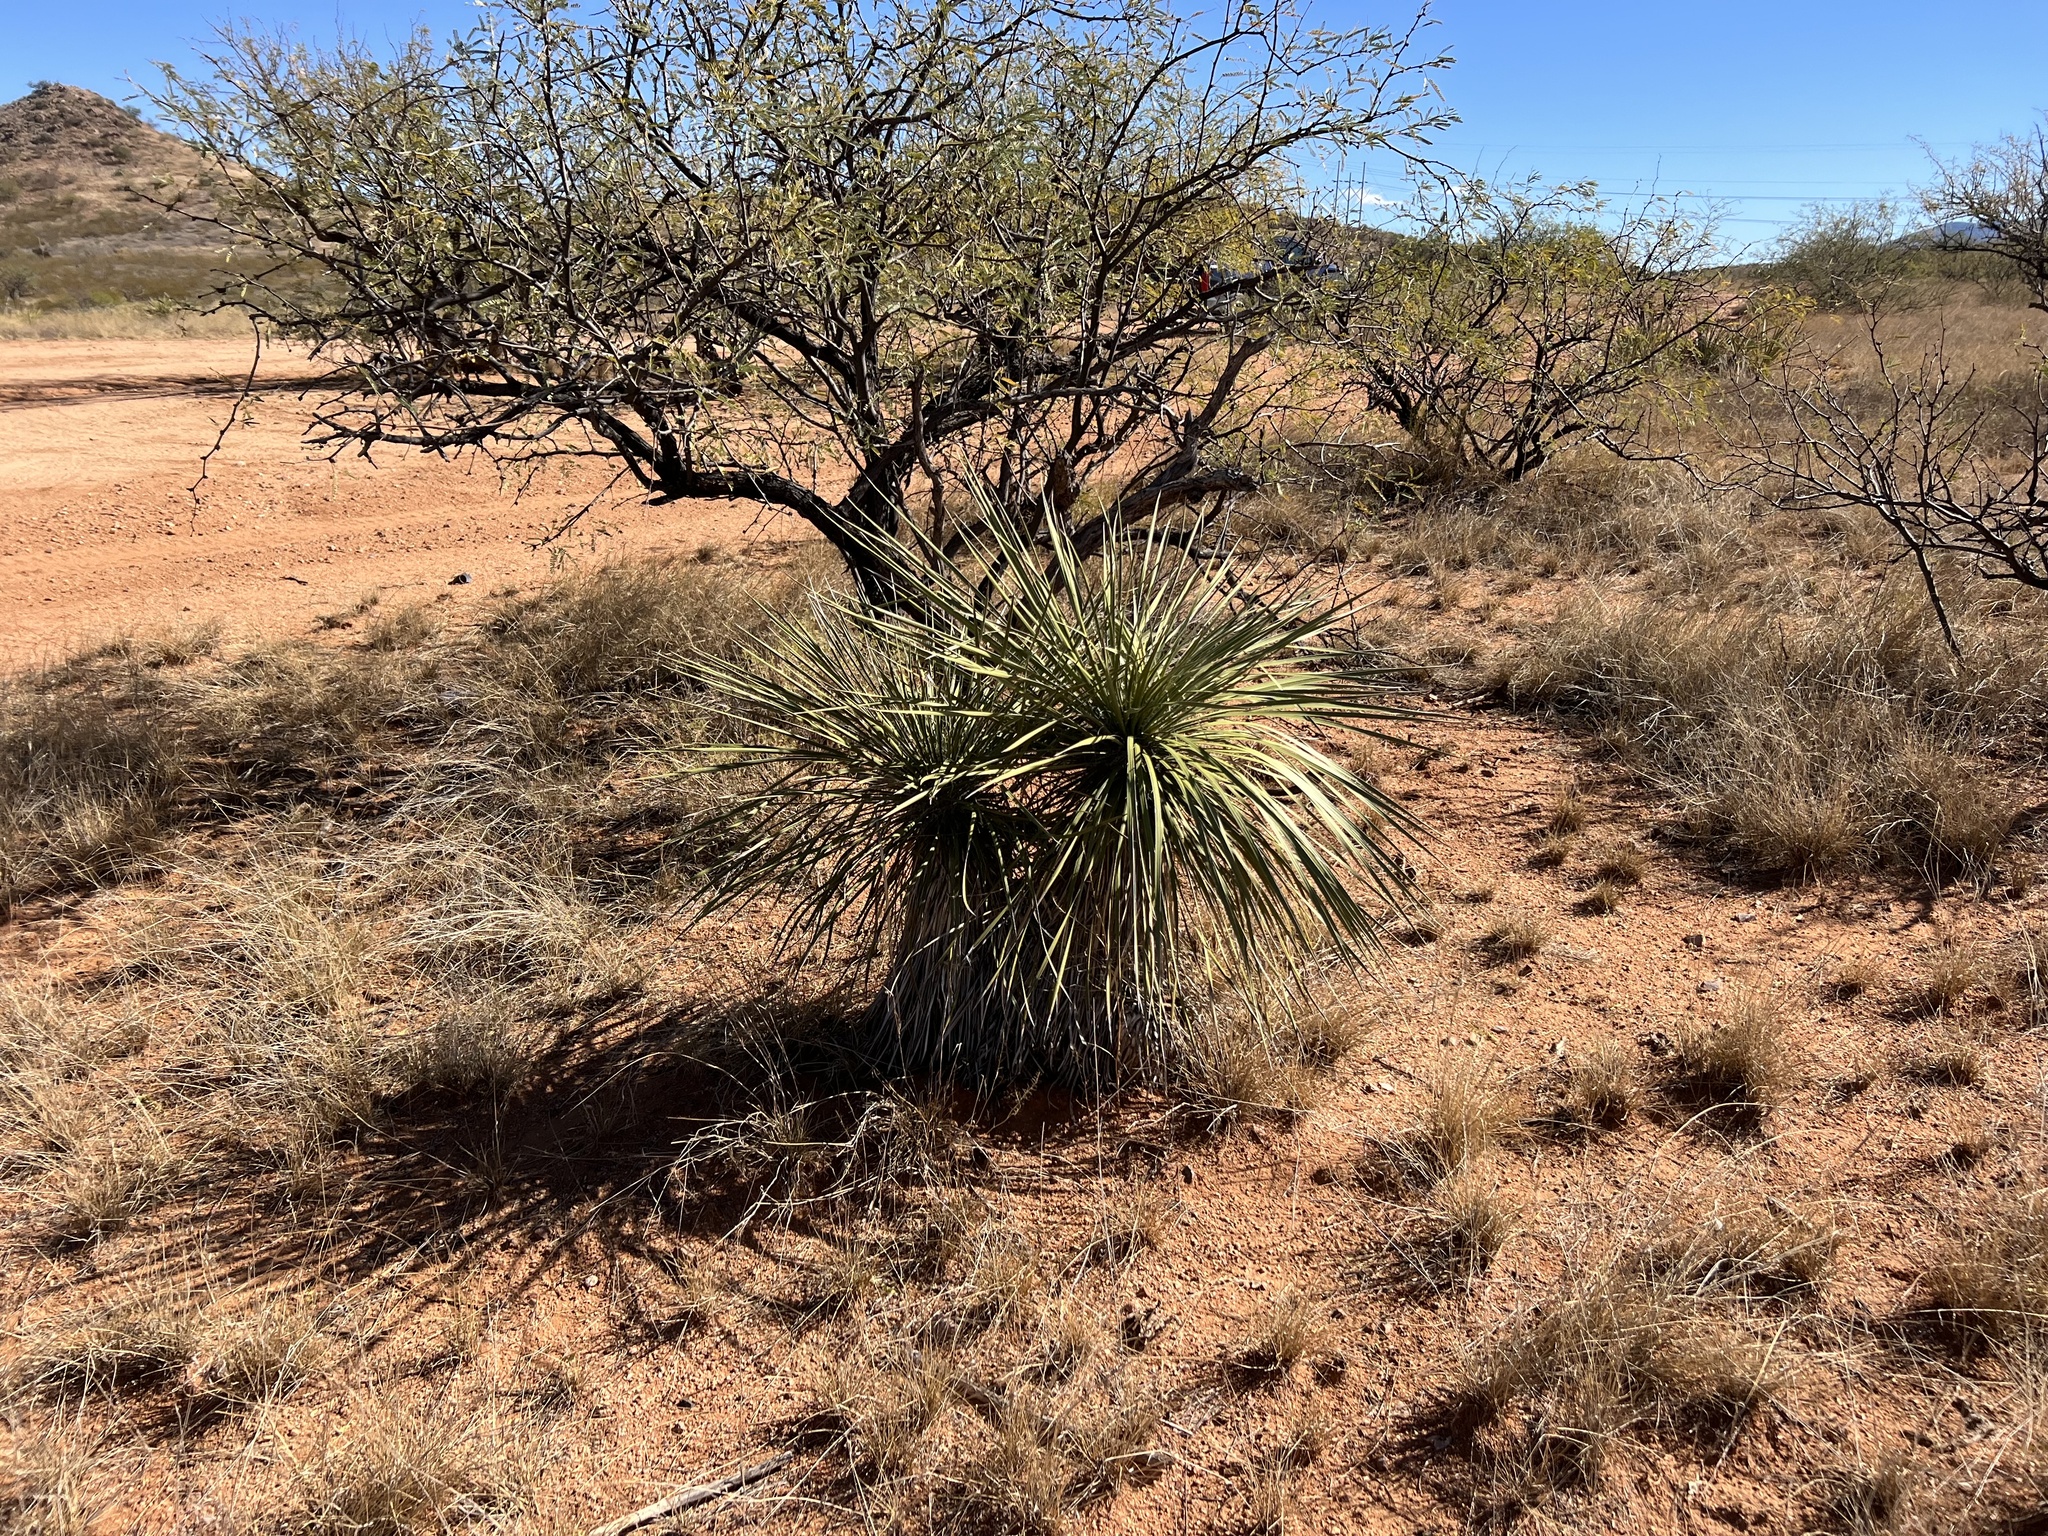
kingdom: Plantae
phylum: Tracheophyta
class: Liliopsida
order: Asparagales
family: Asparagaceae
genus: Yucca
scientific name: Yucca elata
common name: Palmella
